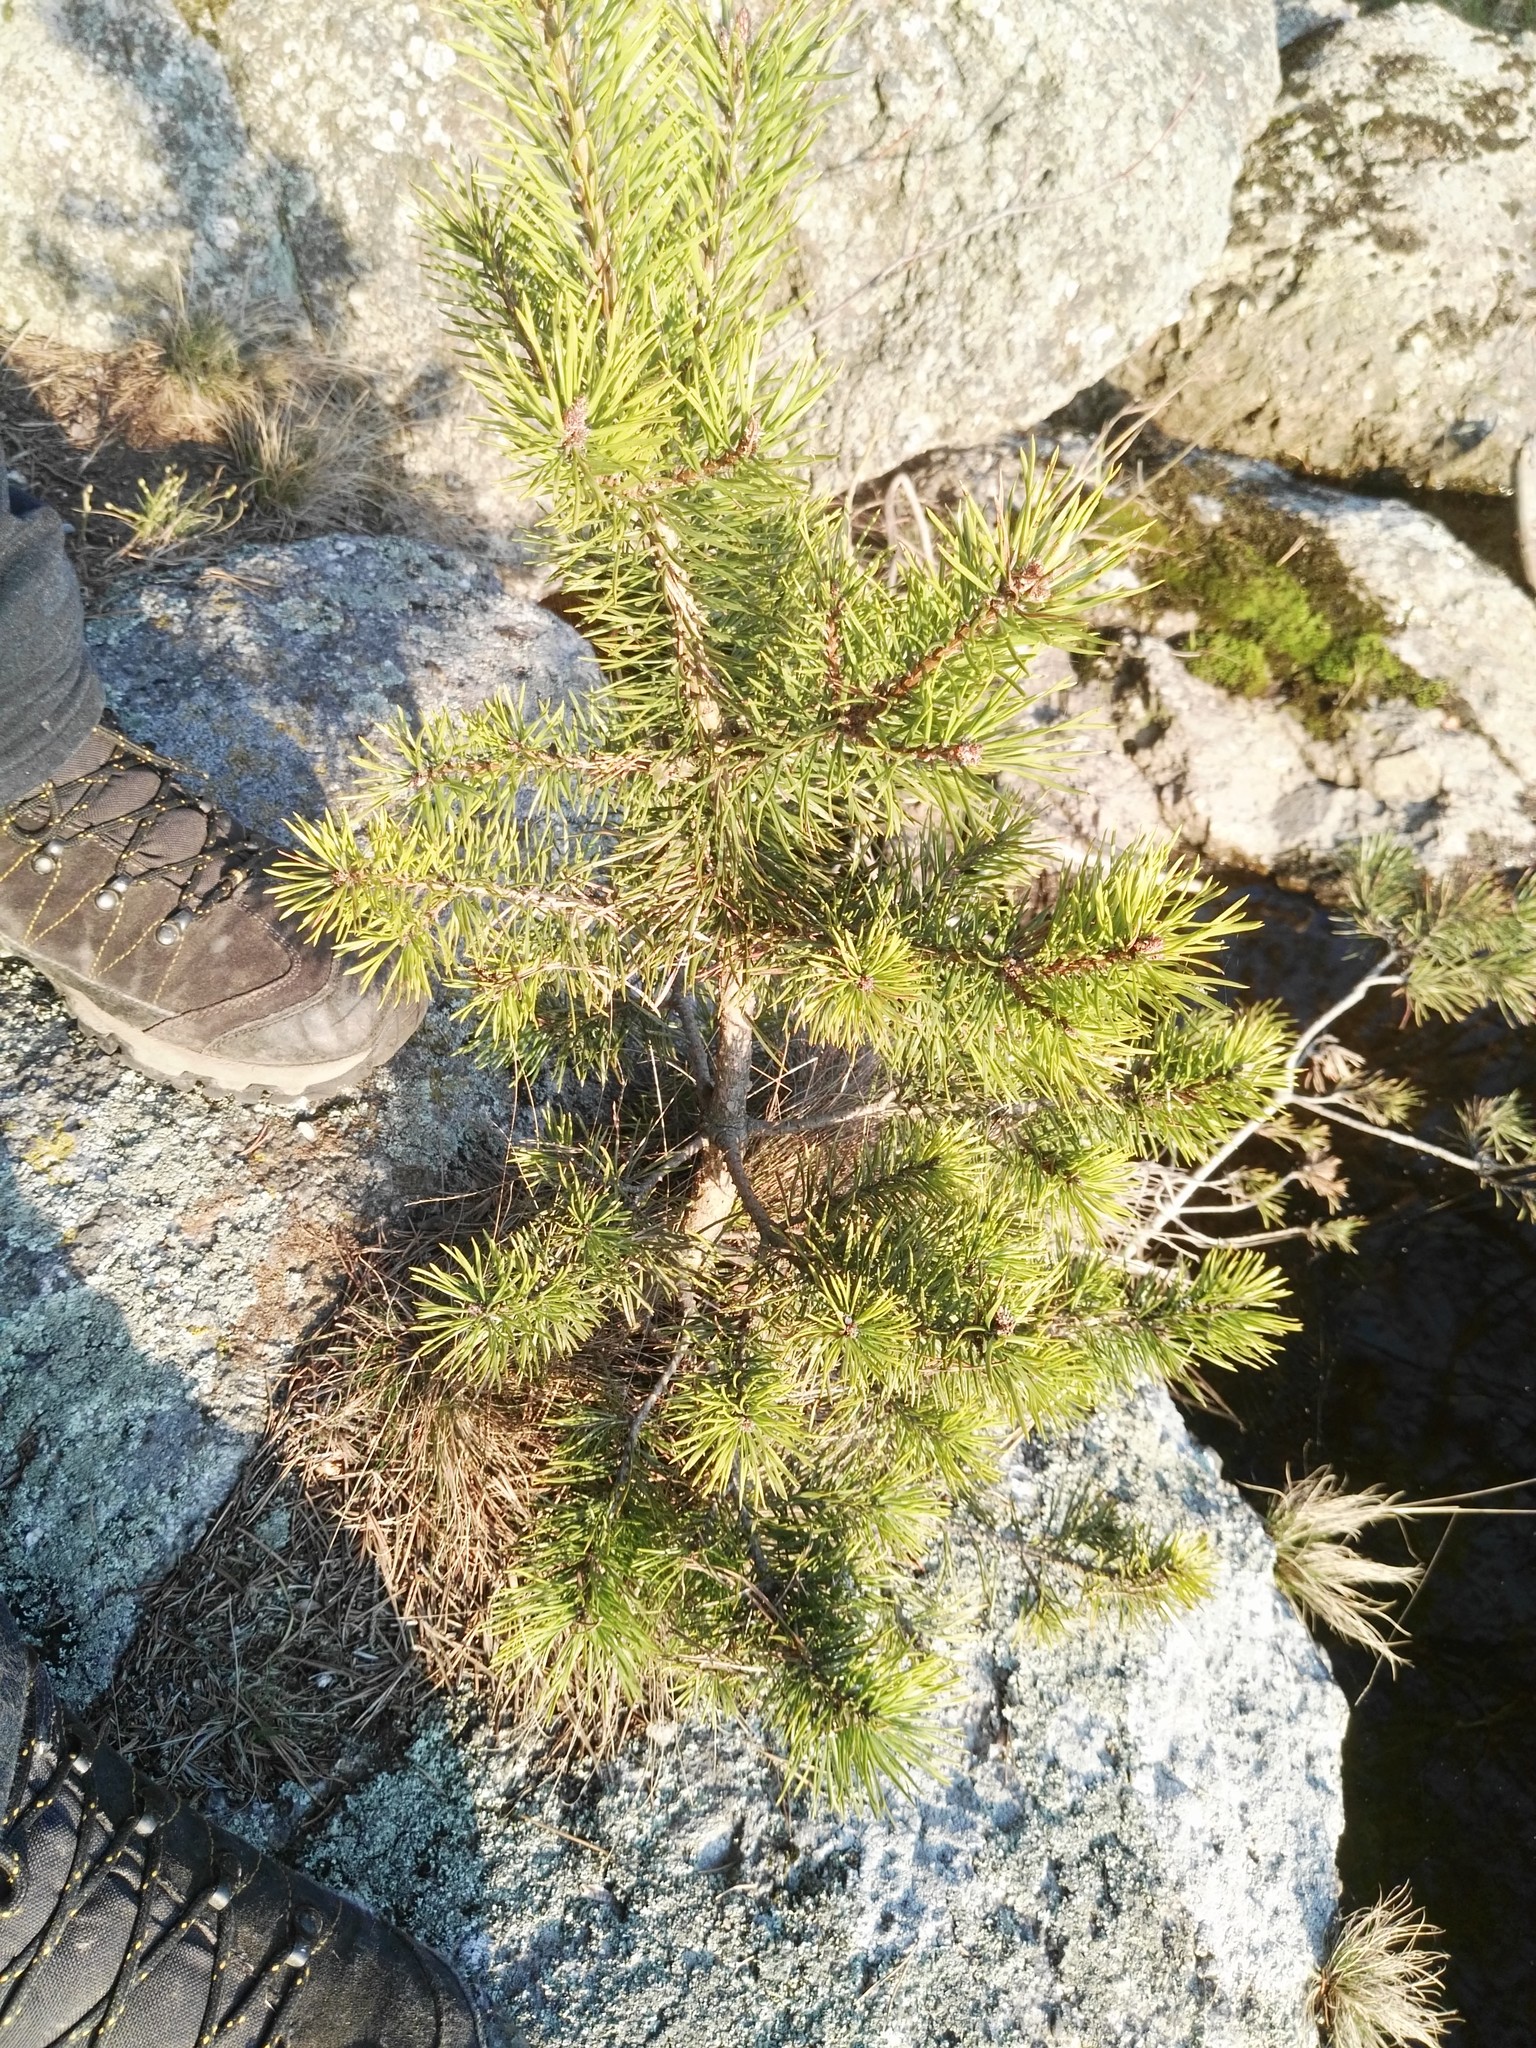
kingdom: Plantae
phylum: Tracheophyta
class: Pinopsida
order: Pinales
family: Pinaceae
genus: Pinus
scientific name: Pinus sylvestris
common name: Scots pine
